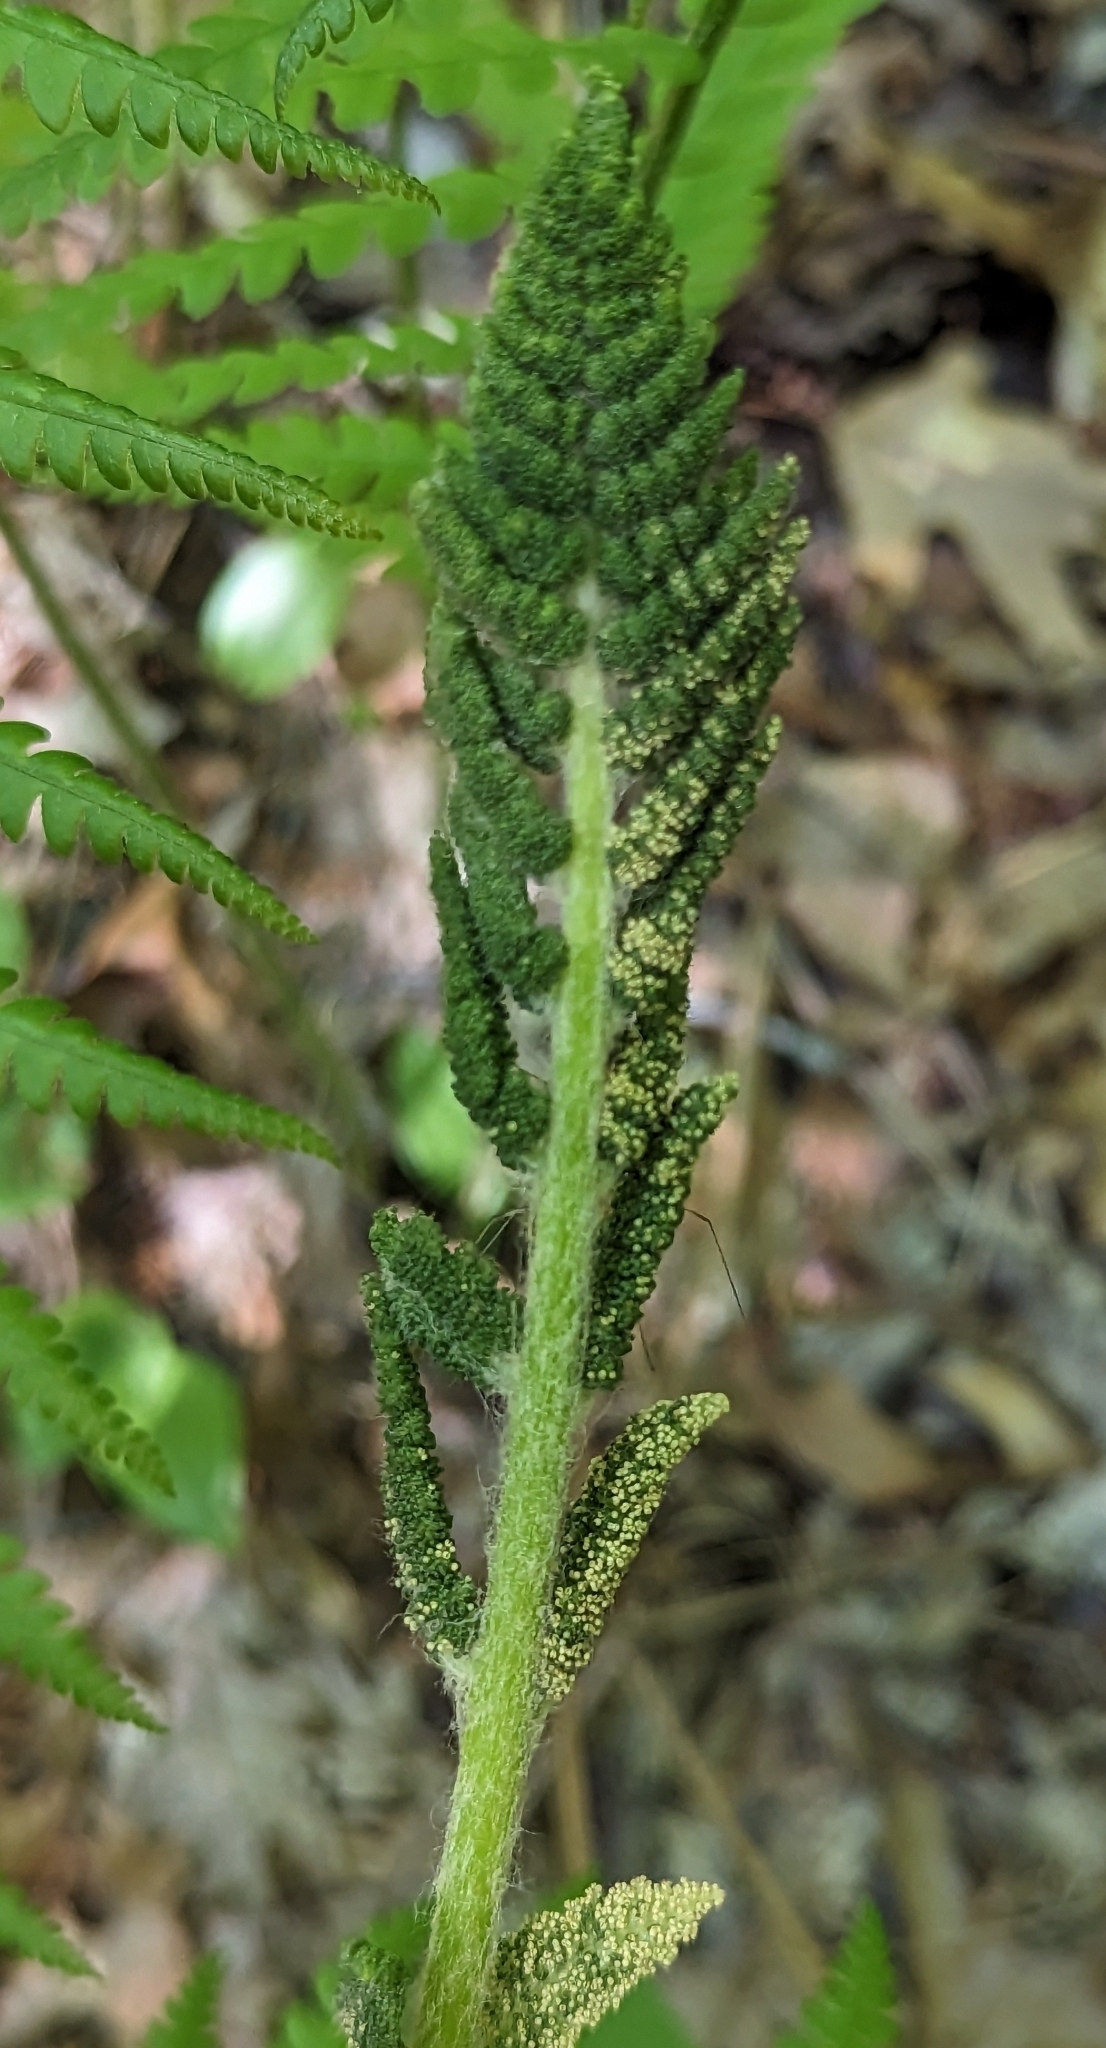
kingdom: Plantae
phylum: Tracheophyta
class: Polypodiopsida
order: Osmundales
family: Osmundaceae
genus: Osmundastrum
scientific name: Osmundastrum cinnamomeum
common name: Cinnamon fern
